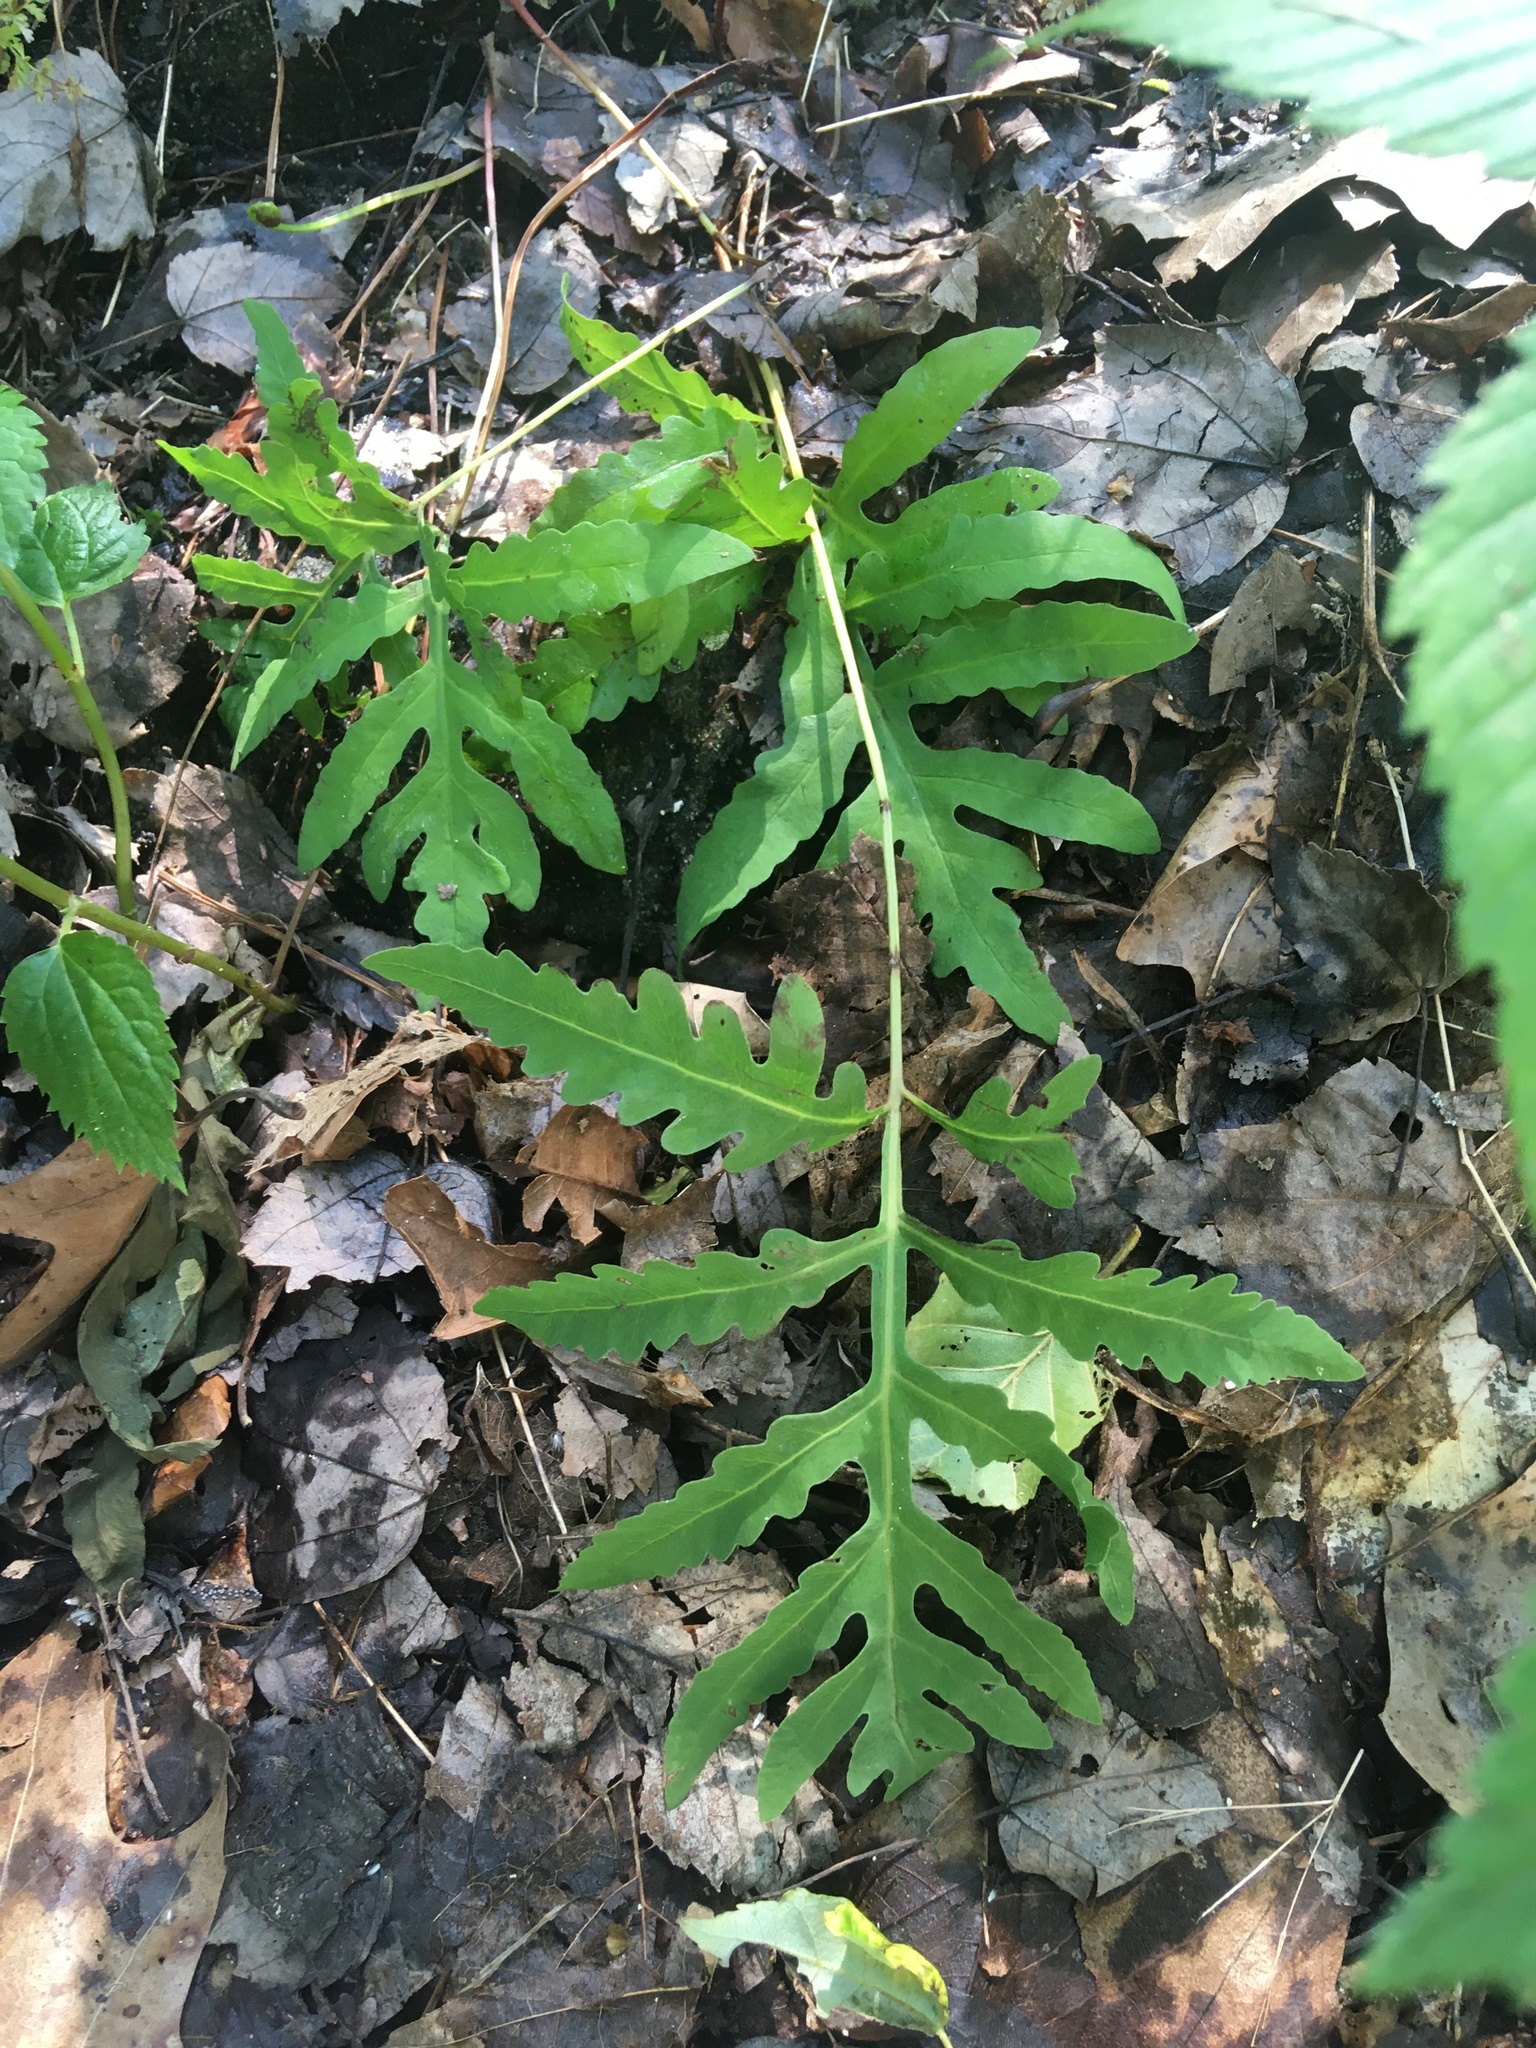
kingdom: Plantae
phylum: Tracheophyta
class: Polypodiopsida
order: Polypodiales
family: Onocleaceae
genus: Onoclea
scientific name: Onoclea sensibilis
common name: Sensitive fern
